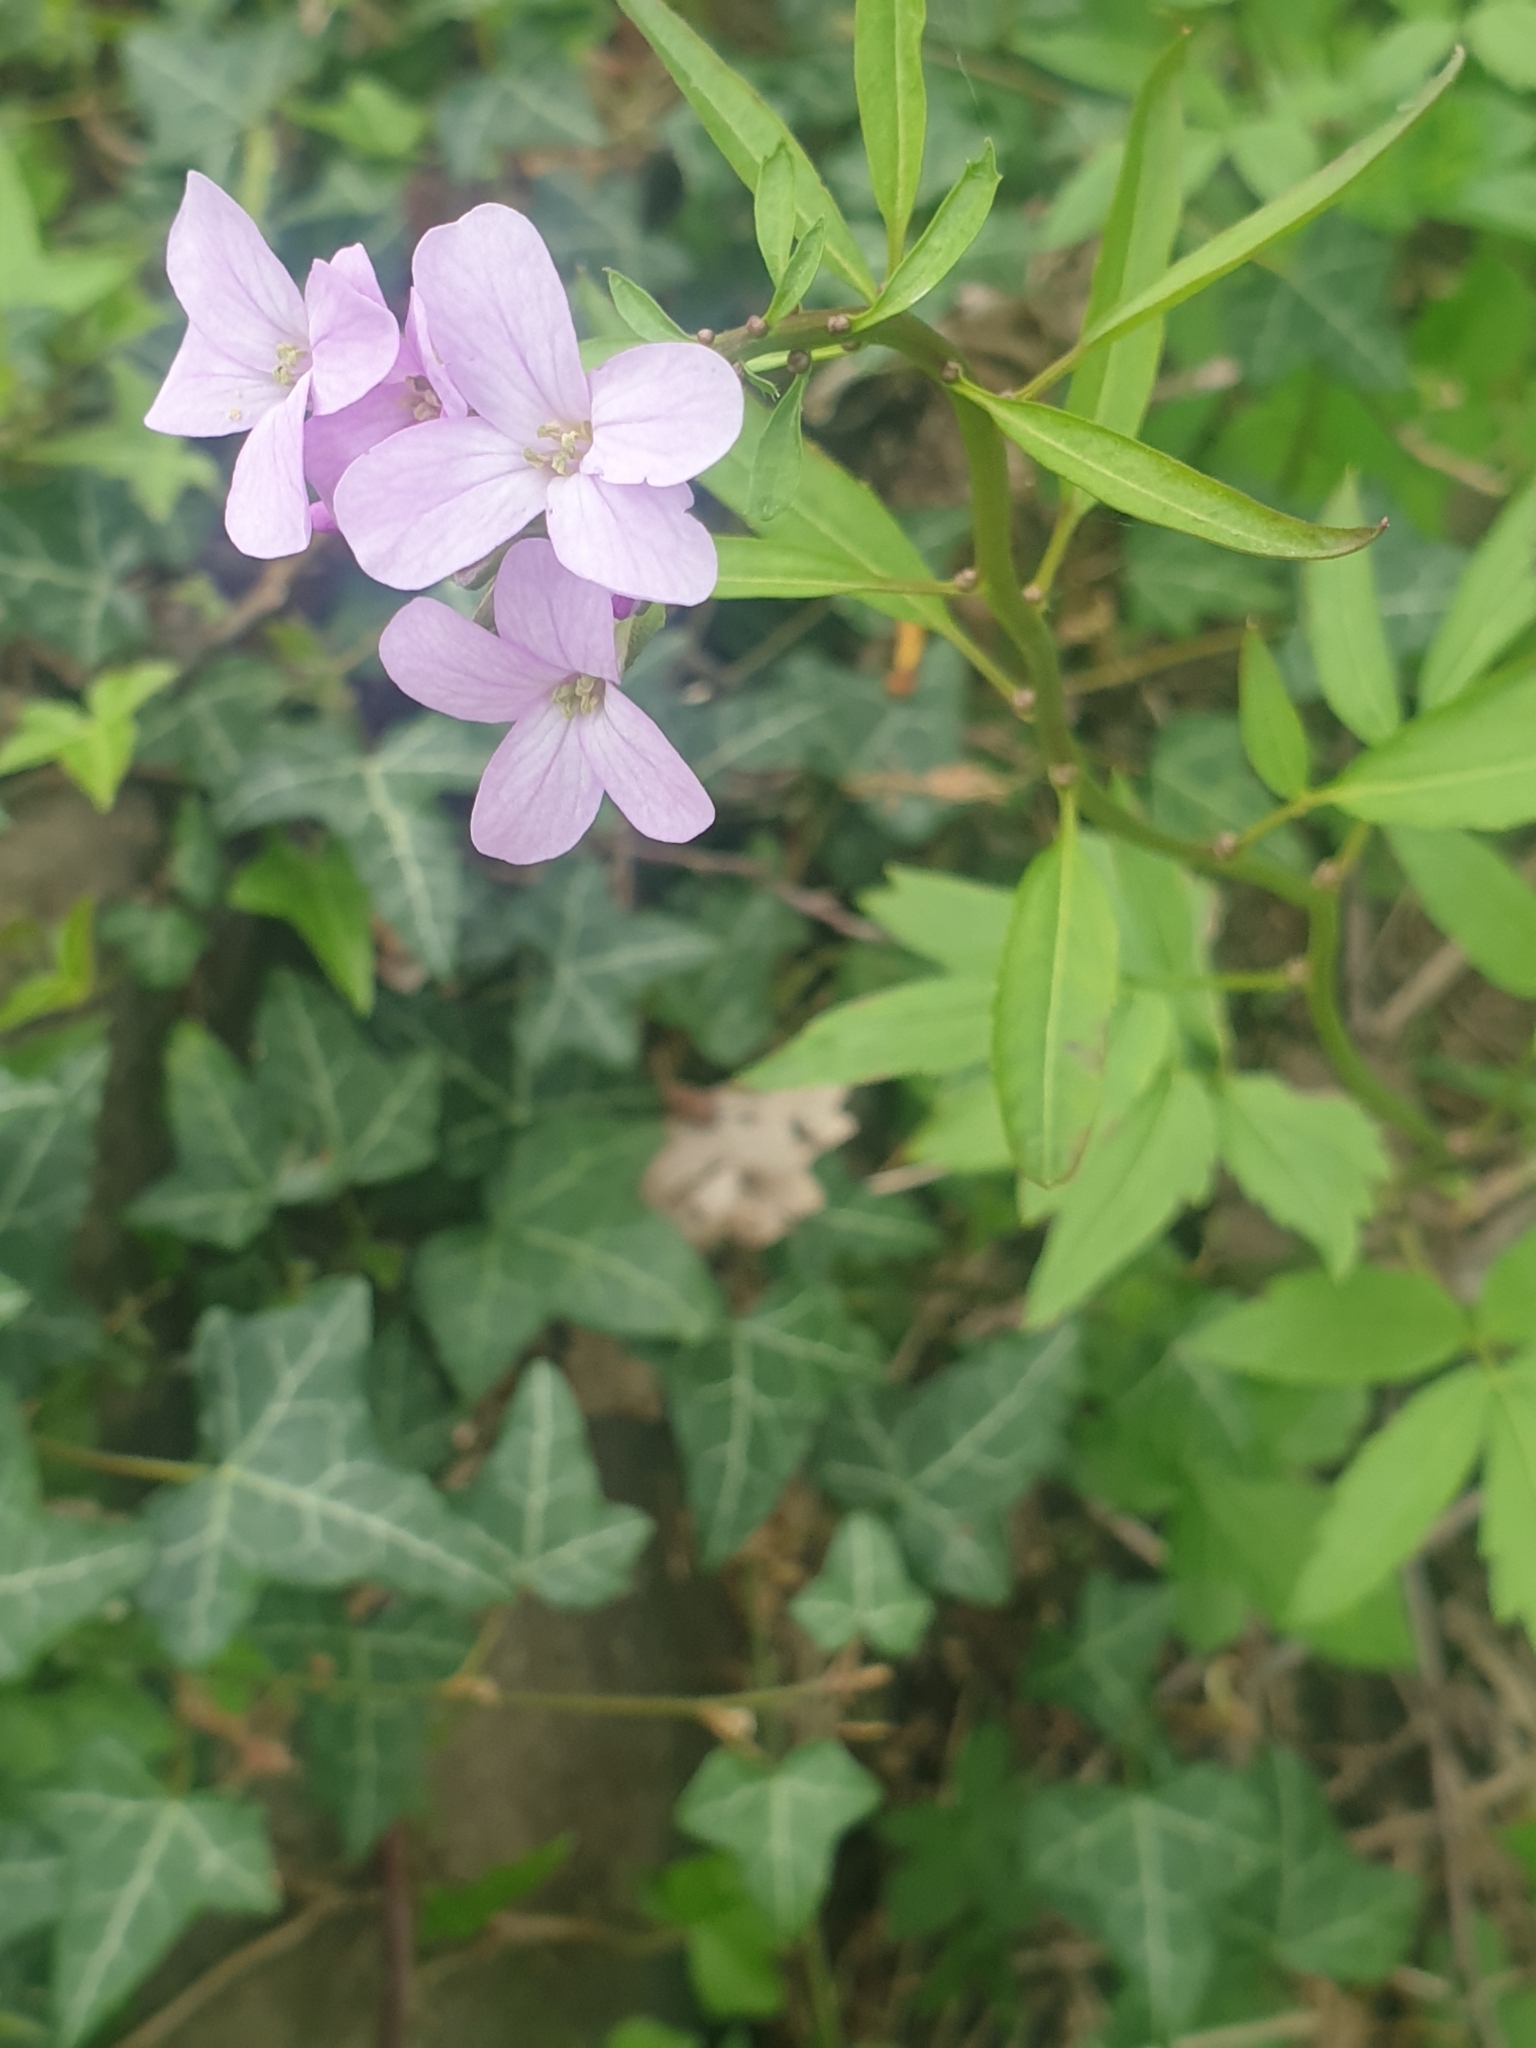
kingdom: Plantae
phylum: Tracheophyta
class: Magnoliopsida
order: Brassicales
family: Brassicaceae
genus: Cardamine
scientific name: Cardamine bulbifera
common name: Coralroot bittercress
